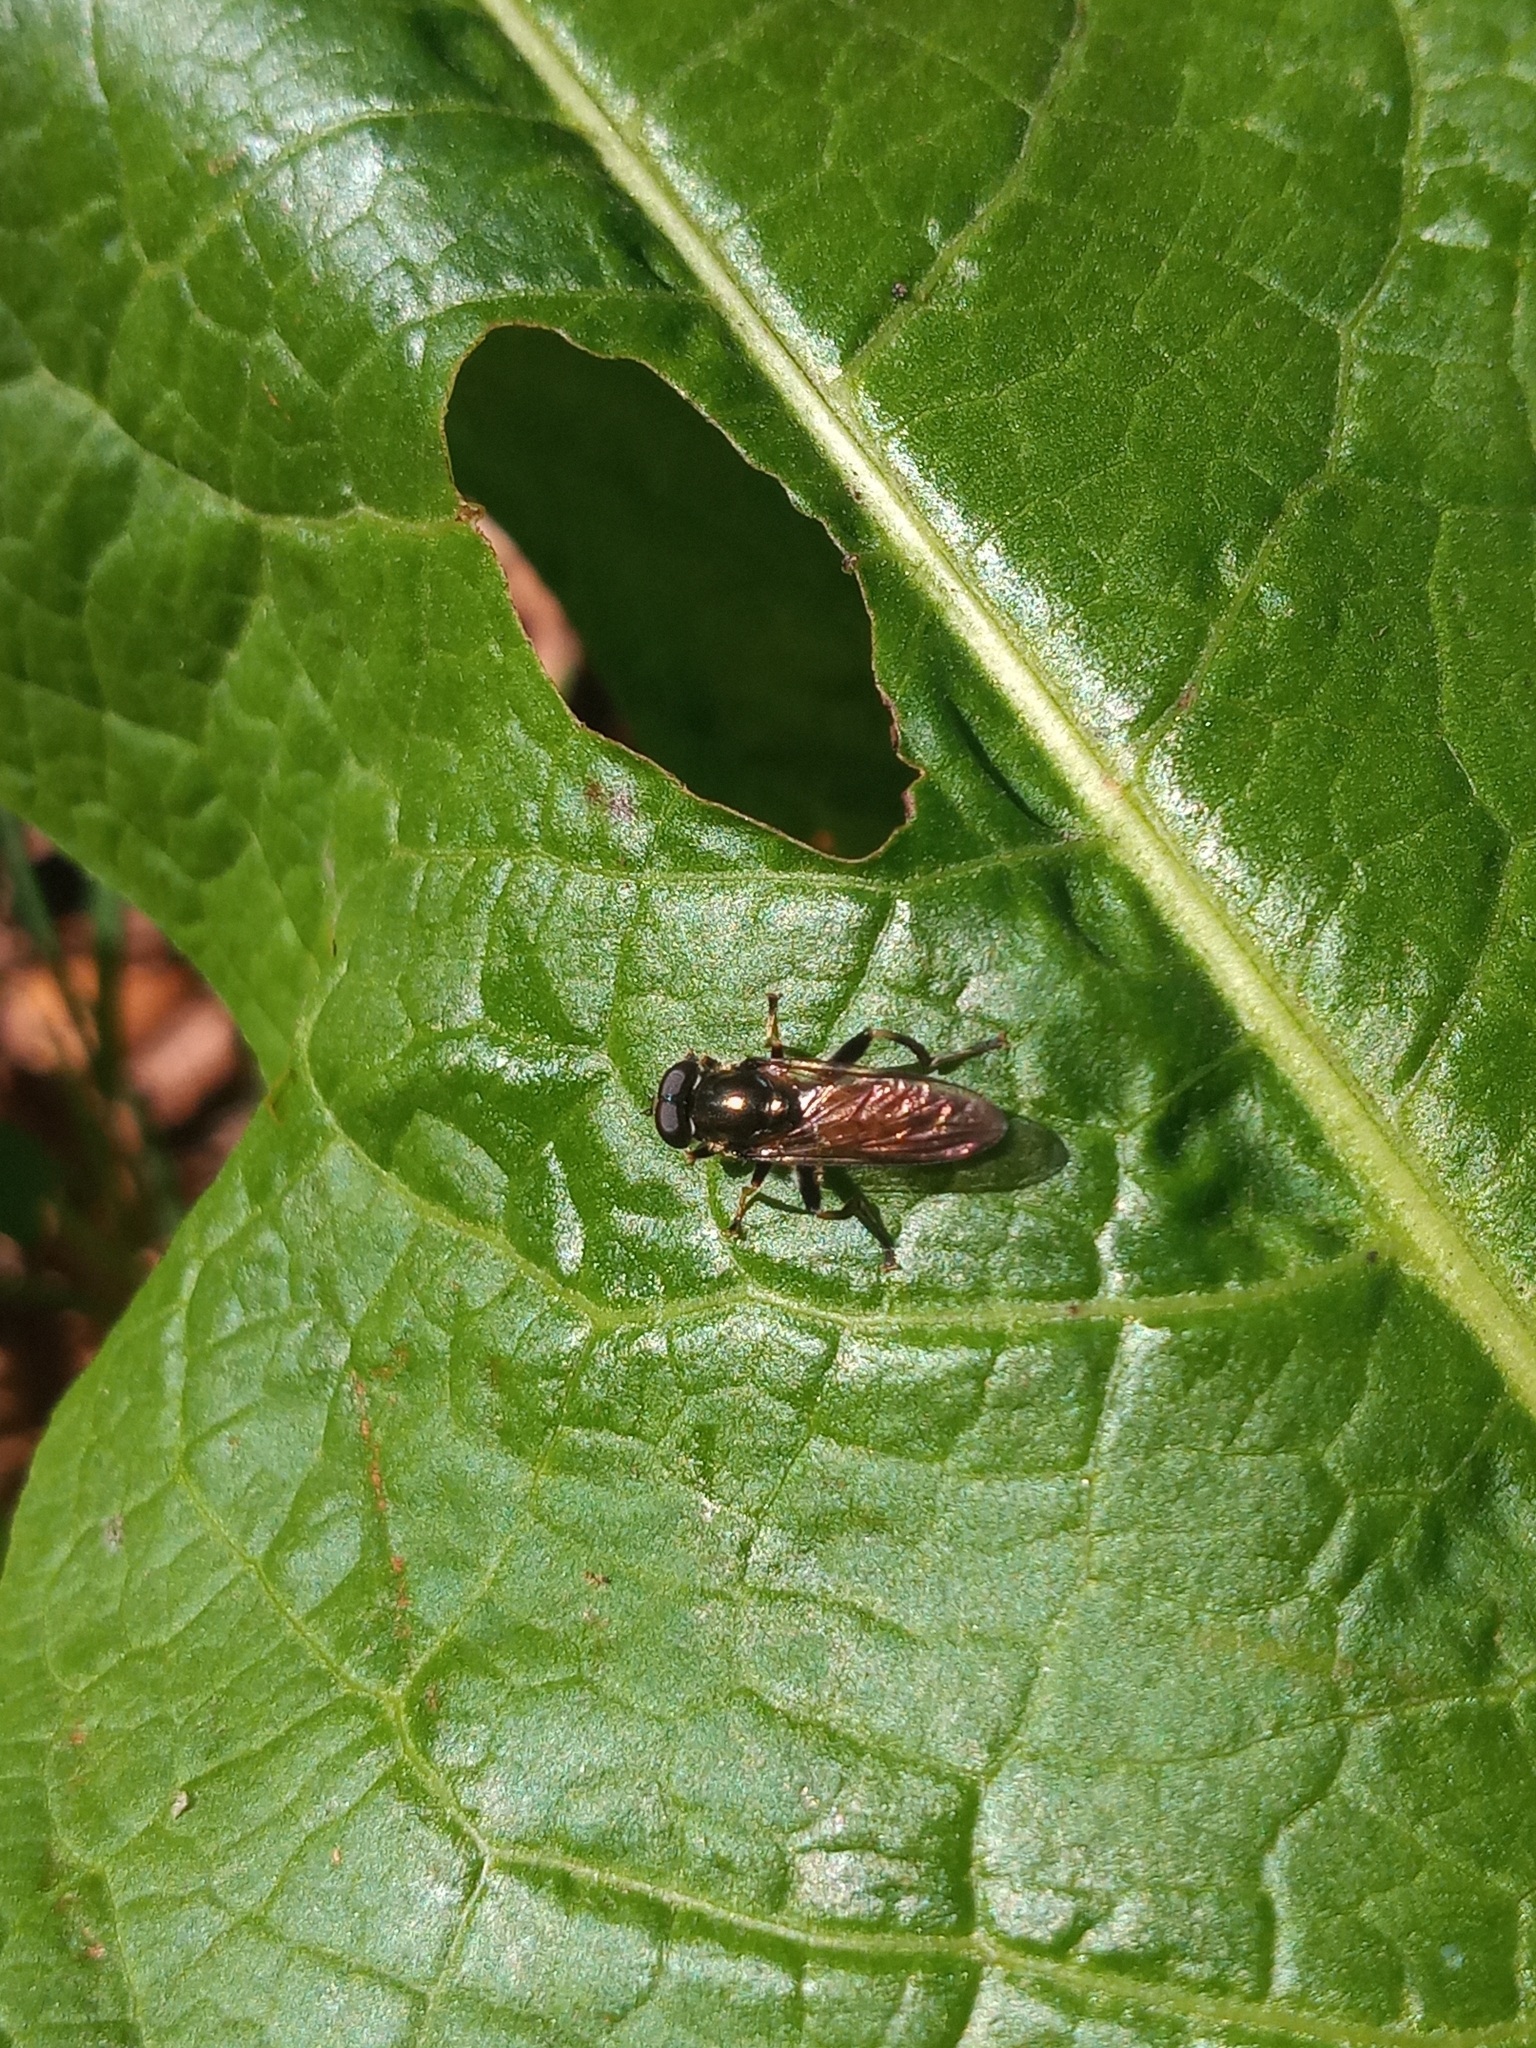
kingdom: Animalia
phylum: Arthropoda
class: Insecta
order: Diptera
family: Syrphidae
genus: Xylota
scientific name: Xylota segnis
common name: Brown-toed forest fly
